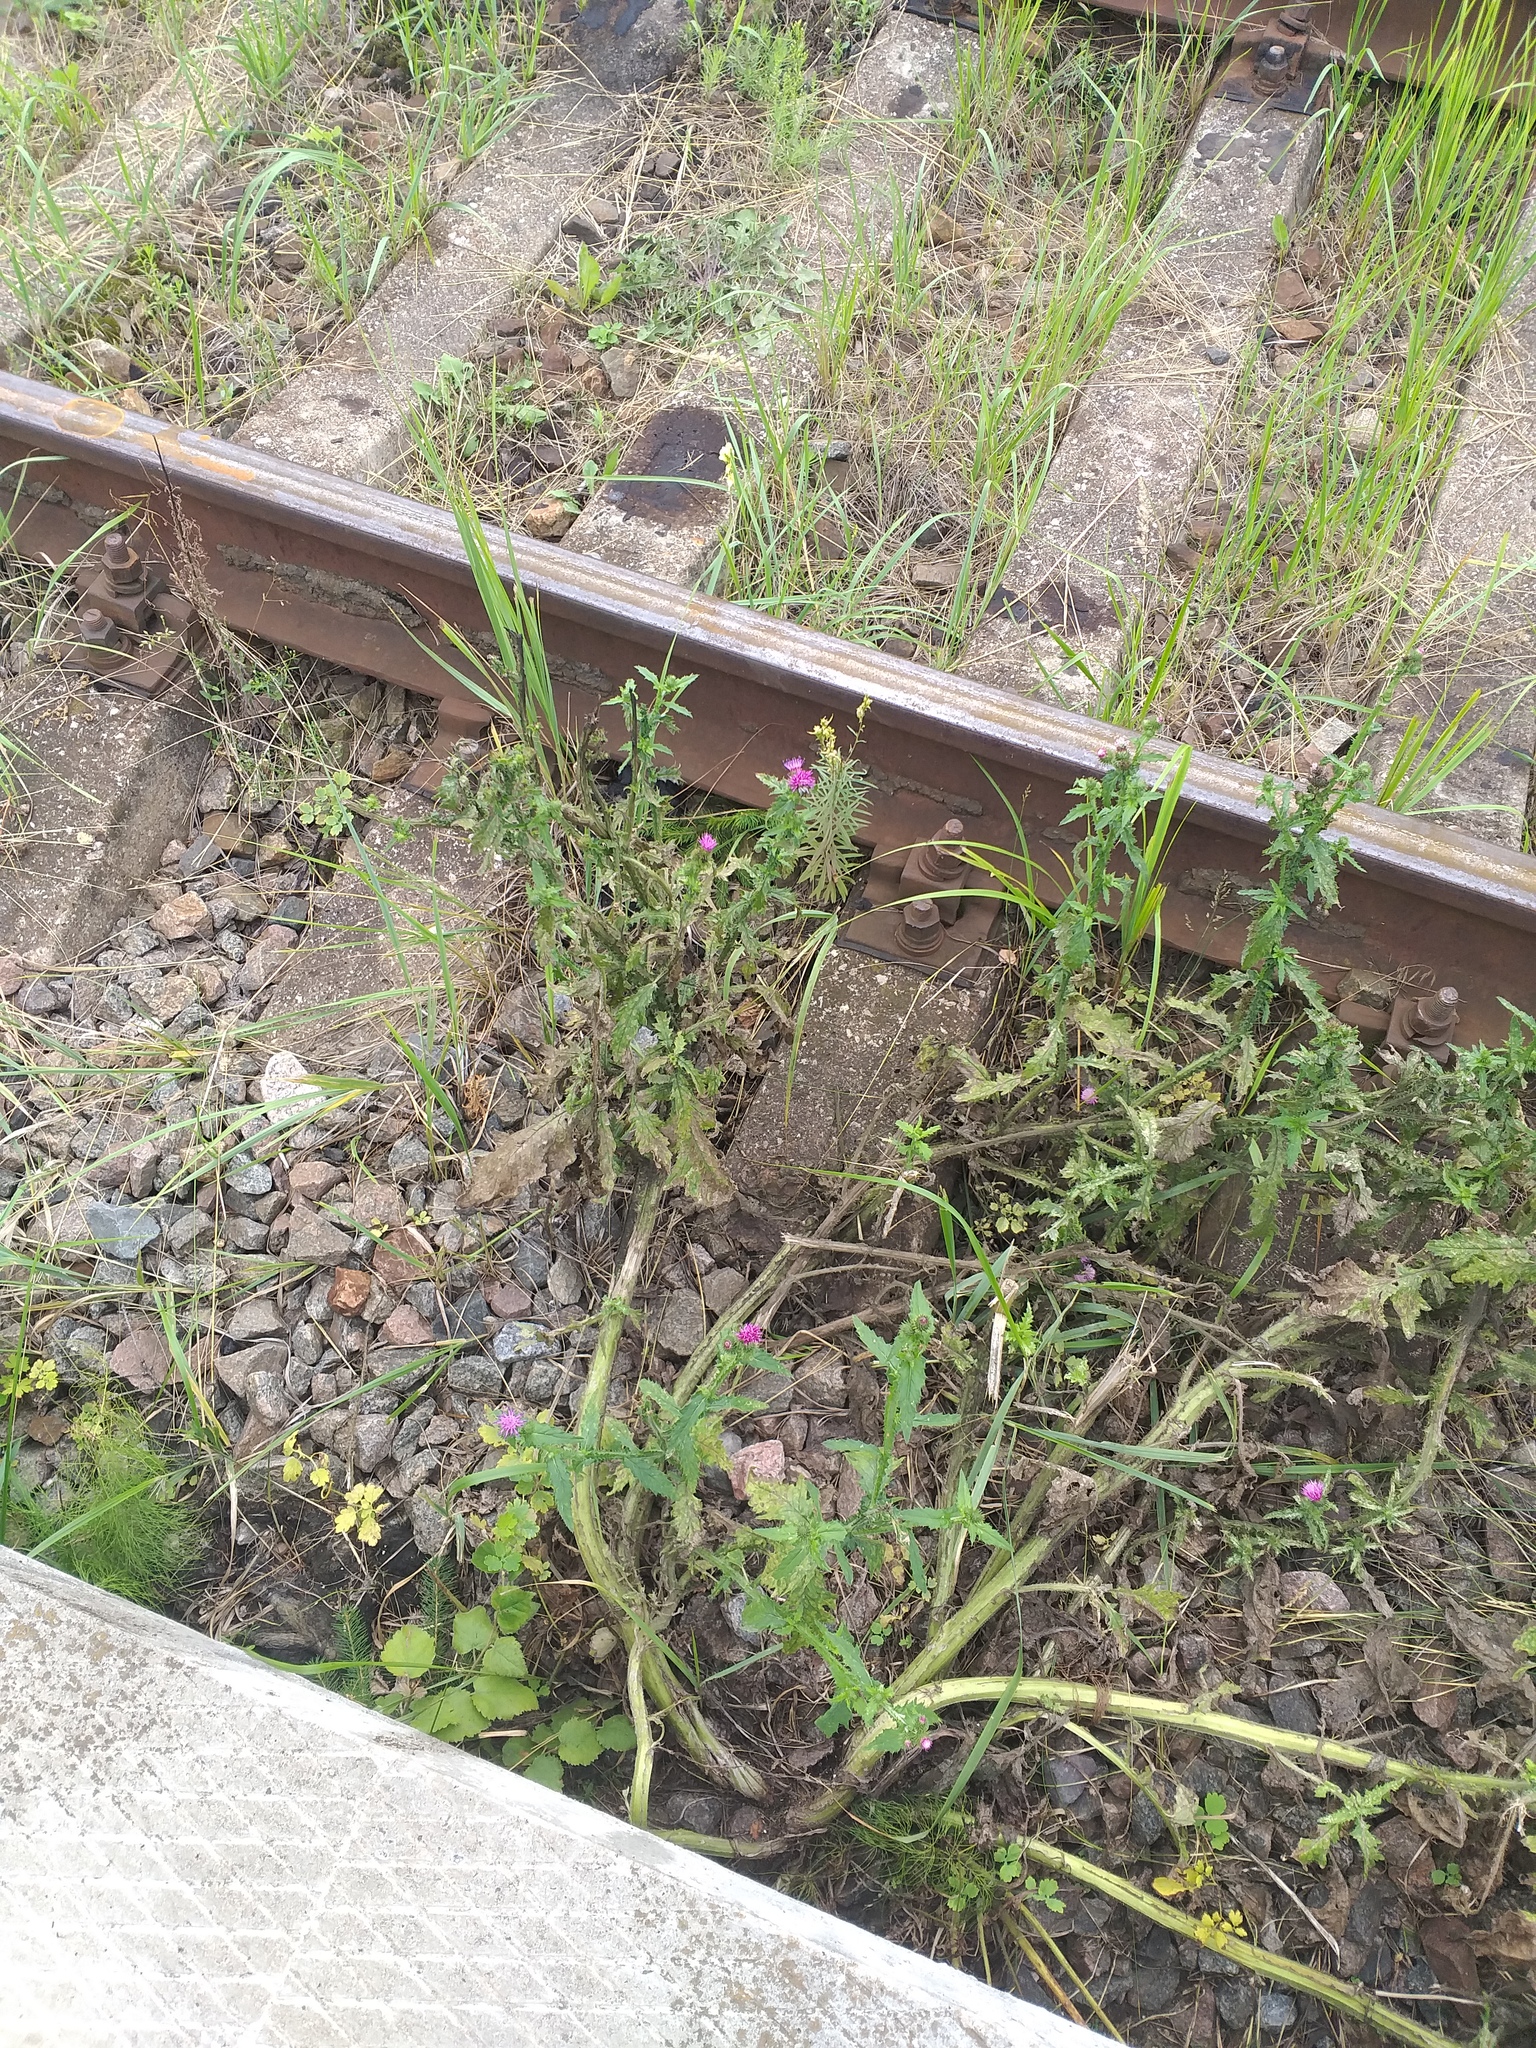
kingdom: Plantae
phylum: Tracheophyta
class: Magnoliopsida
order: Asterales
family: Asteraceae
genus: Carduus
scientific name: Carduus crispus
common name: Welted thistle
